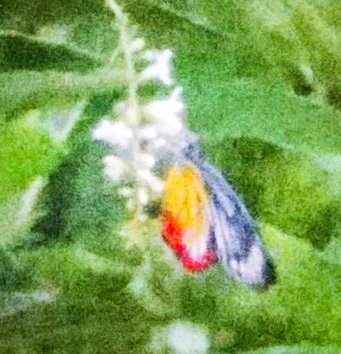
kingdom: Animalia
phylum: Arthropoda
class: Insecta
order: Lepidoptera
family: Pieridae
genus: Delias
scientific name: Delias hyparete
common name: Painted jezebel
